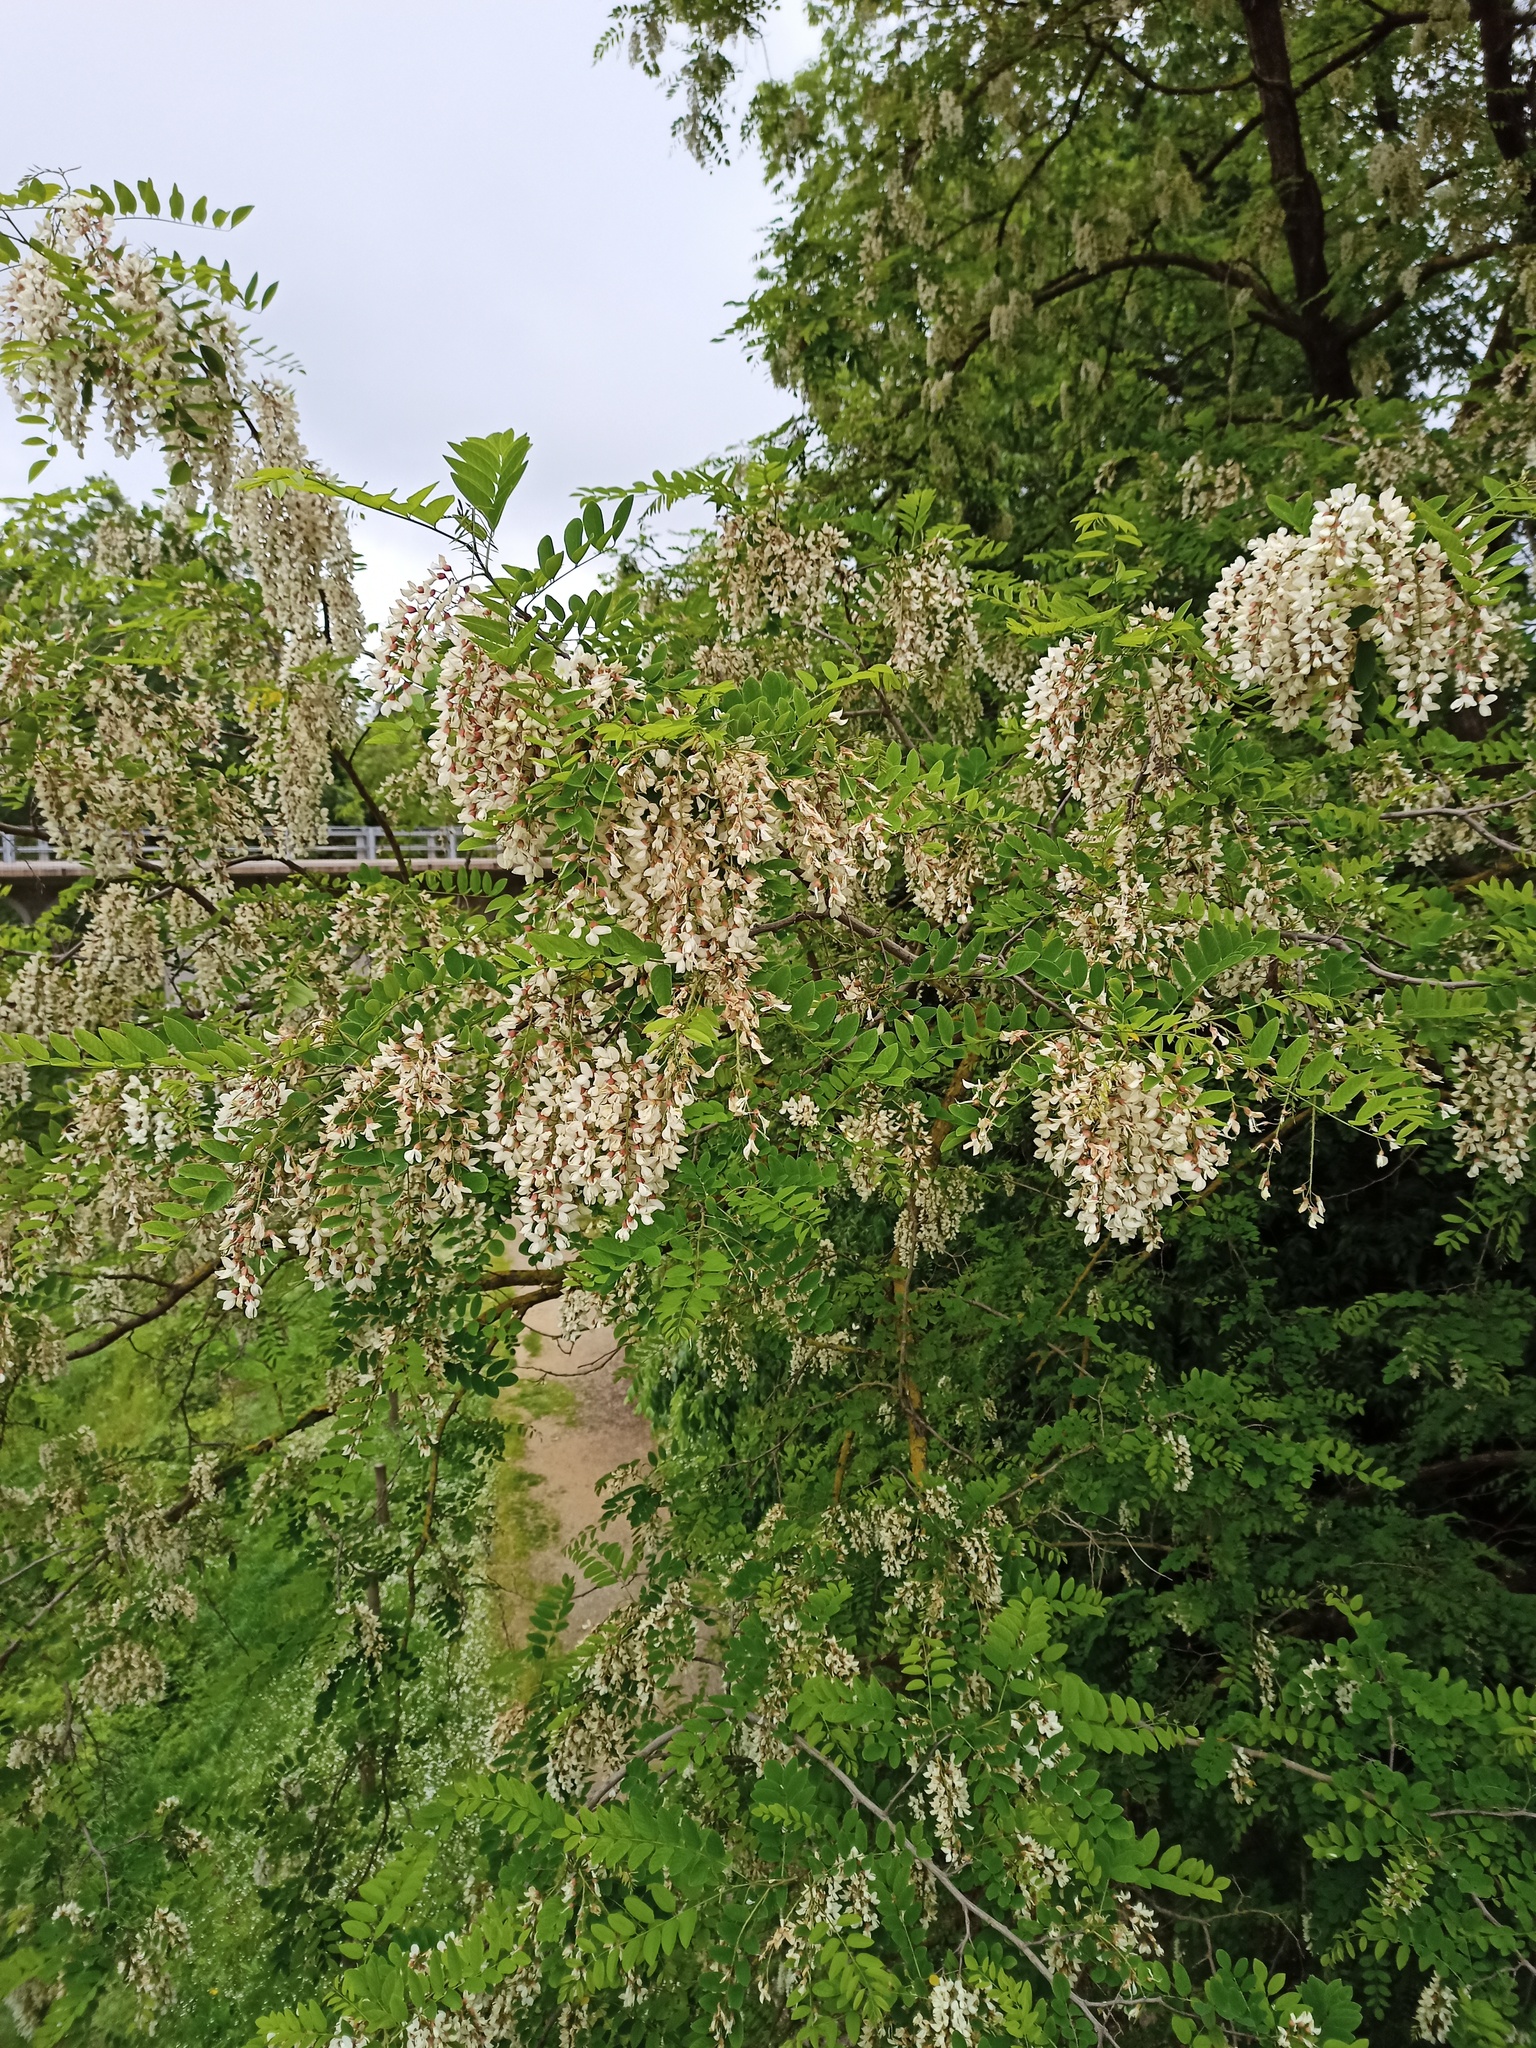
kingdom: Plantae
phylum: Tracheophyta
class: Magnoliopsida
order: Fabales
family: Fabaceae
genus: Robinia
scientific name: Robinia pseudoacacia
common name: Black locust
